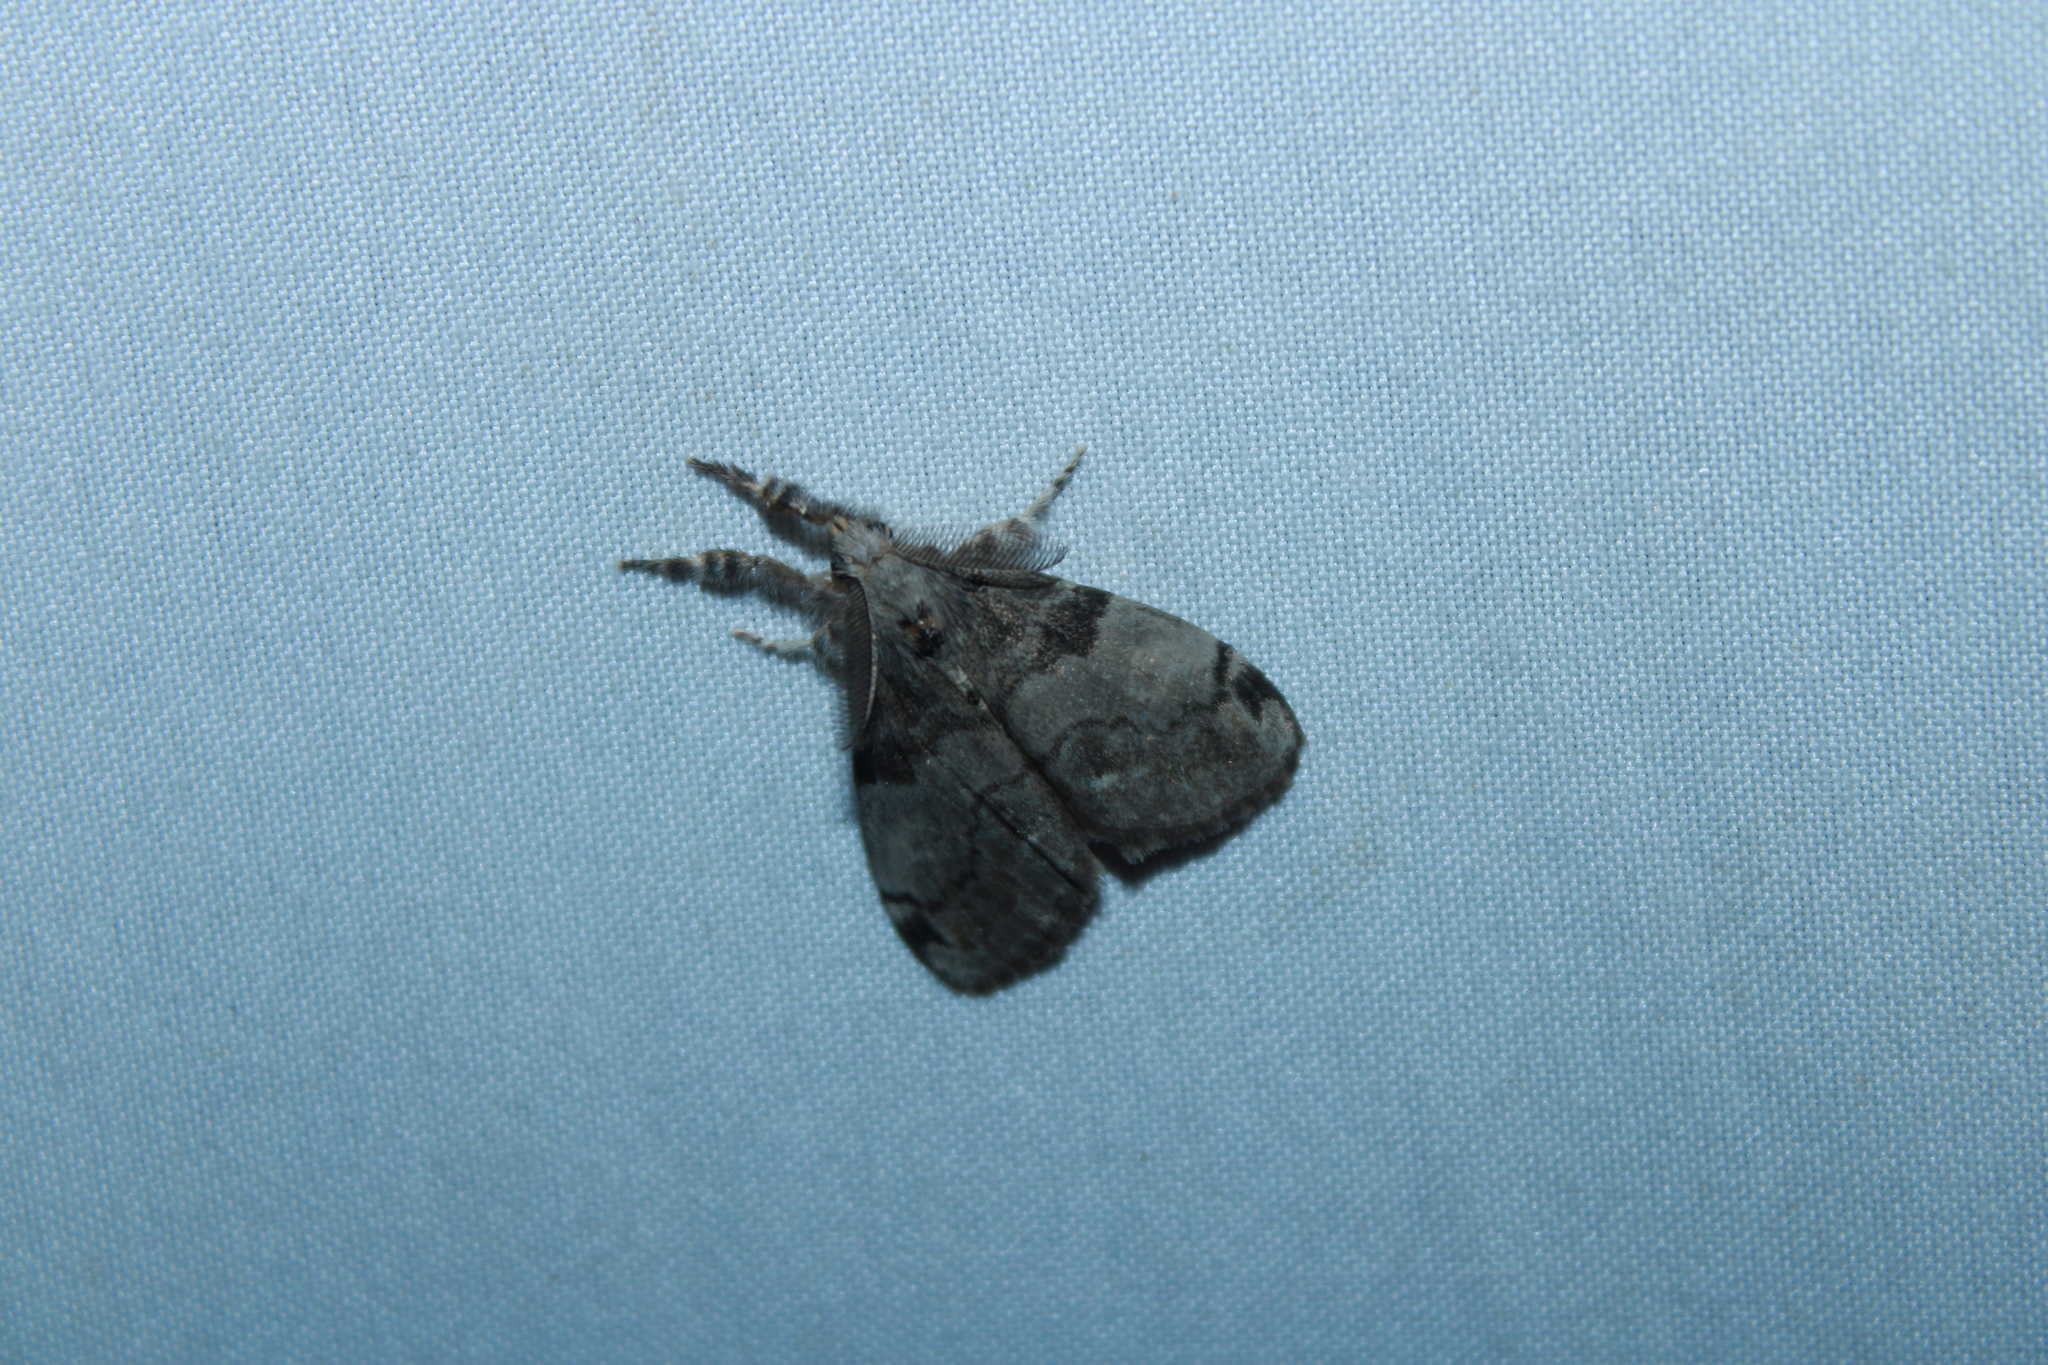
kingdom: Animalia
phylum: Arthropoda
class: Insecta
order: Lepidoptera
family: Erebidae
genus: Orgyia
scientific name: Orgyia leucostigma
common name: White-marked tussock moth
